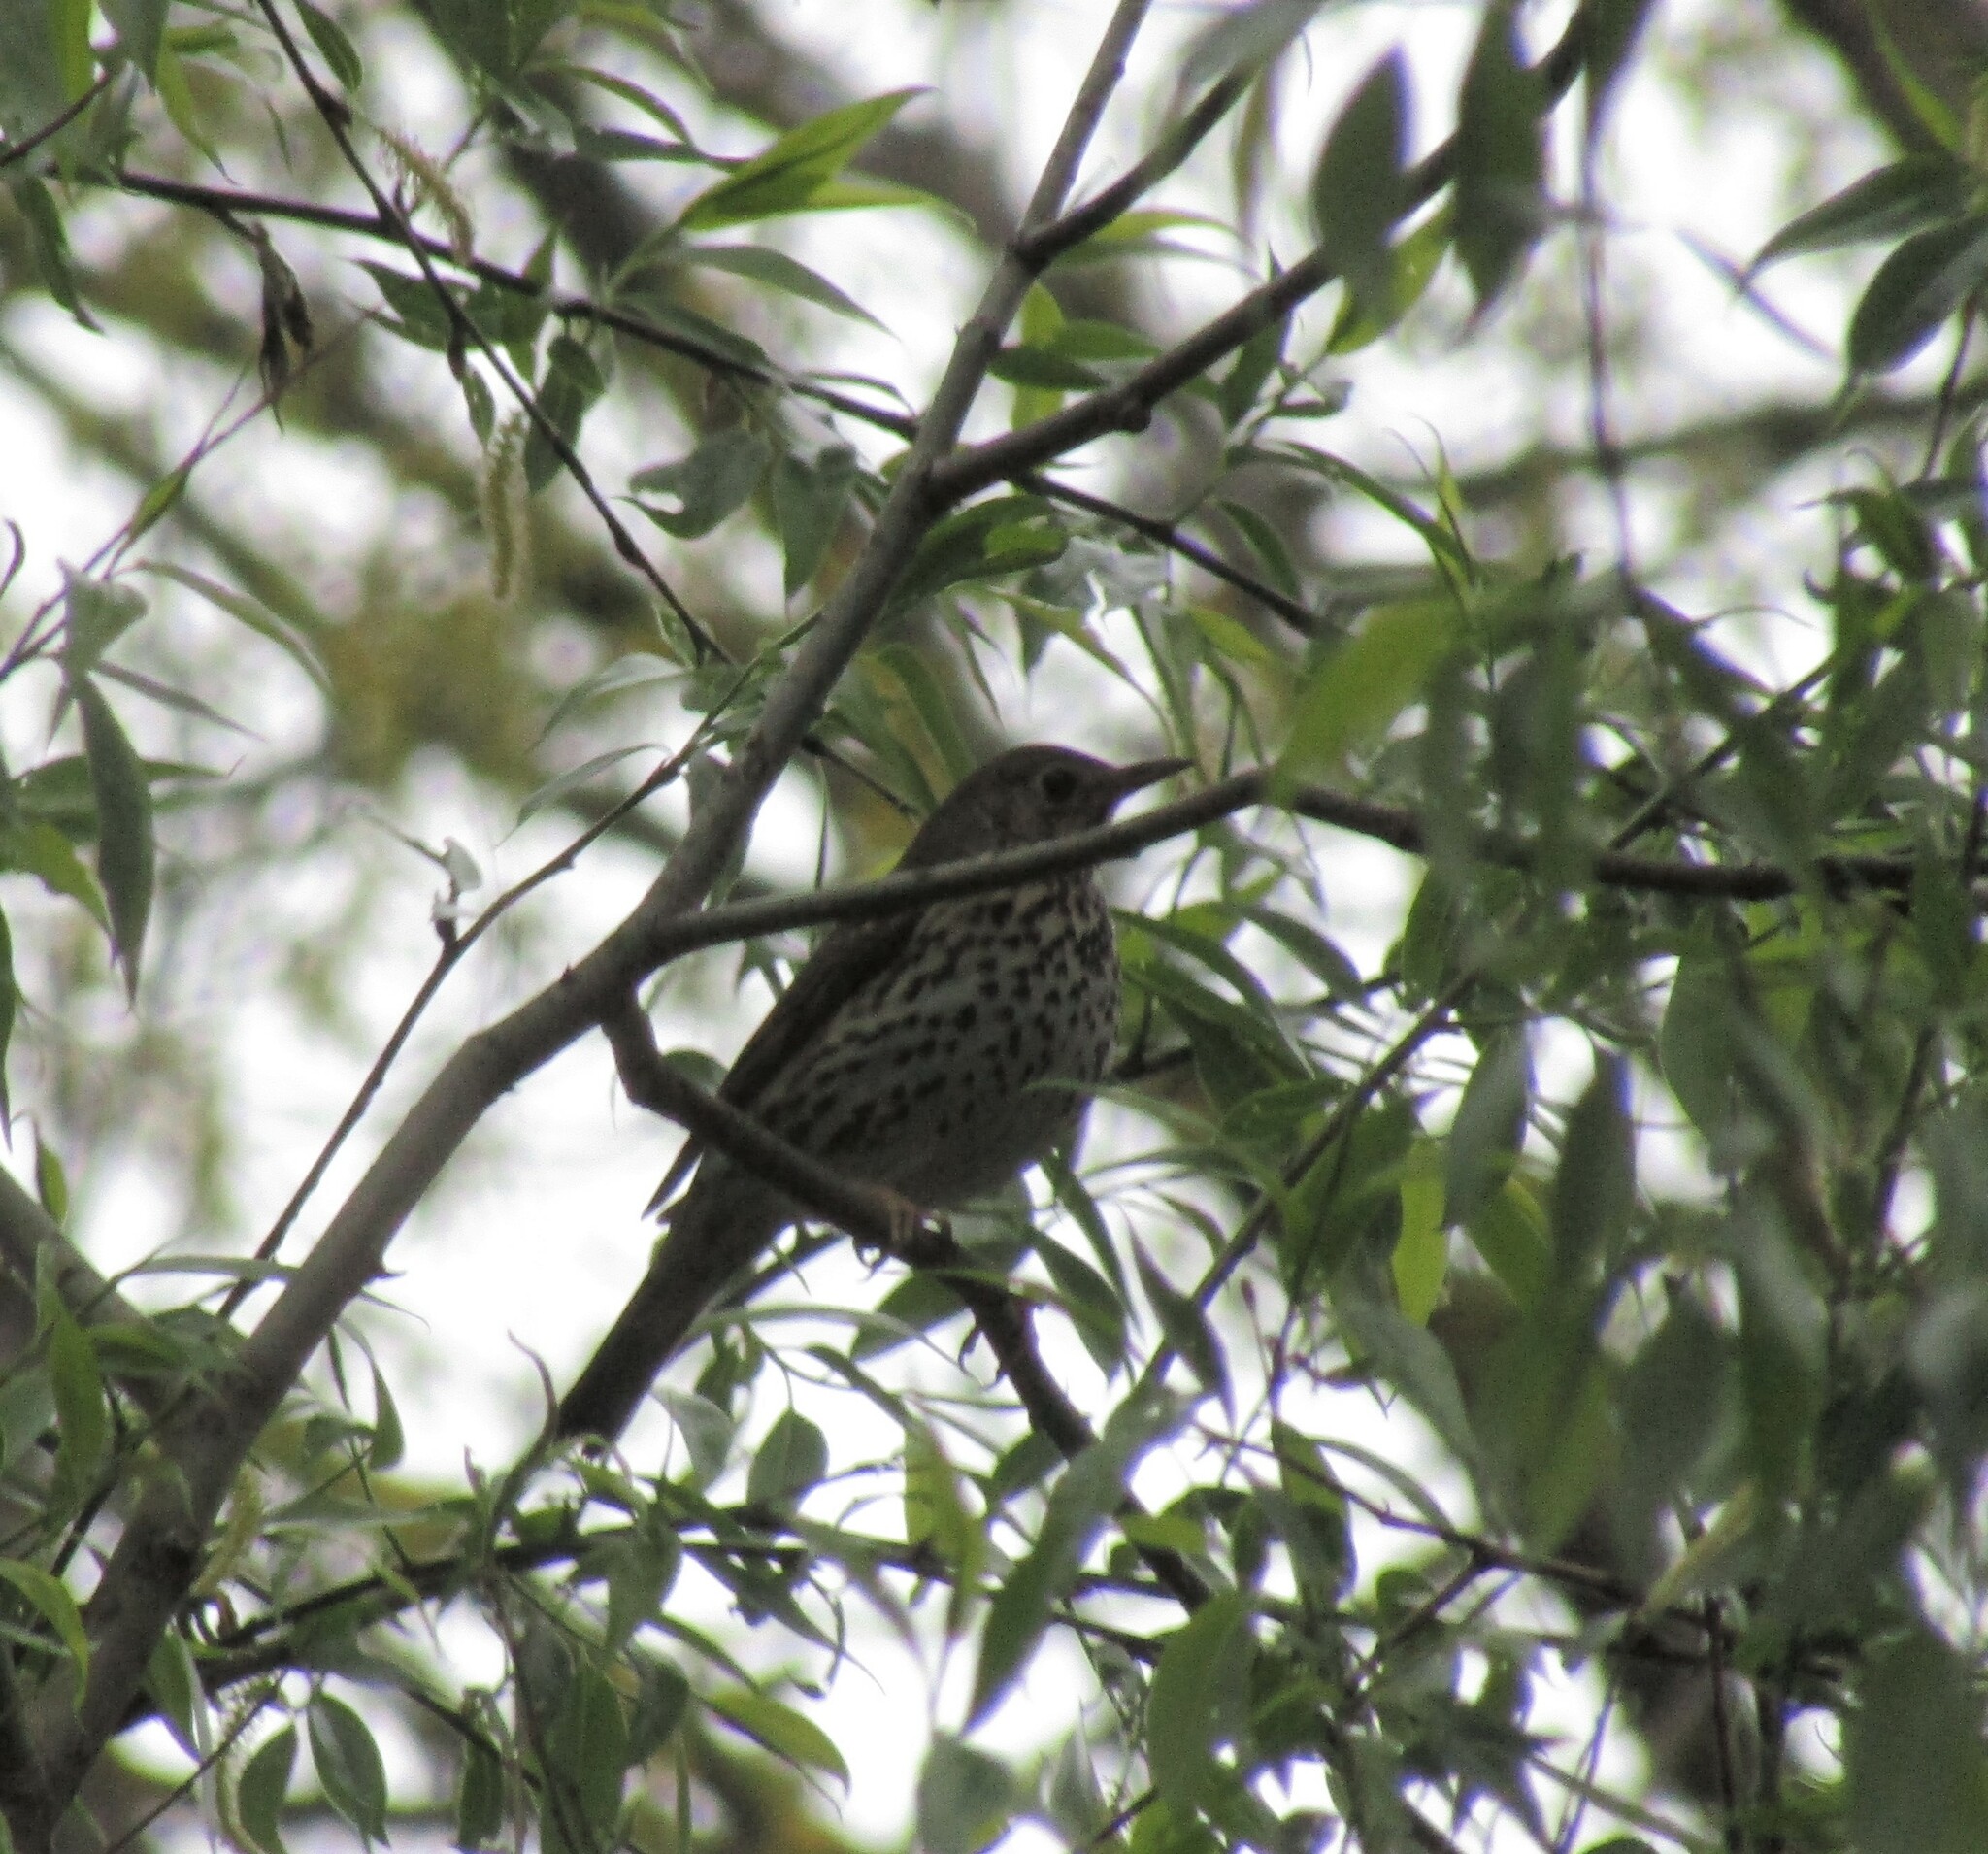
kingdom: Animalia
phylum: Chordata
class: Aves
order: Passeriformes
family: Turdidae
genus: Turdus
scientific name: Turdus philomelos
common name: Song thrush
